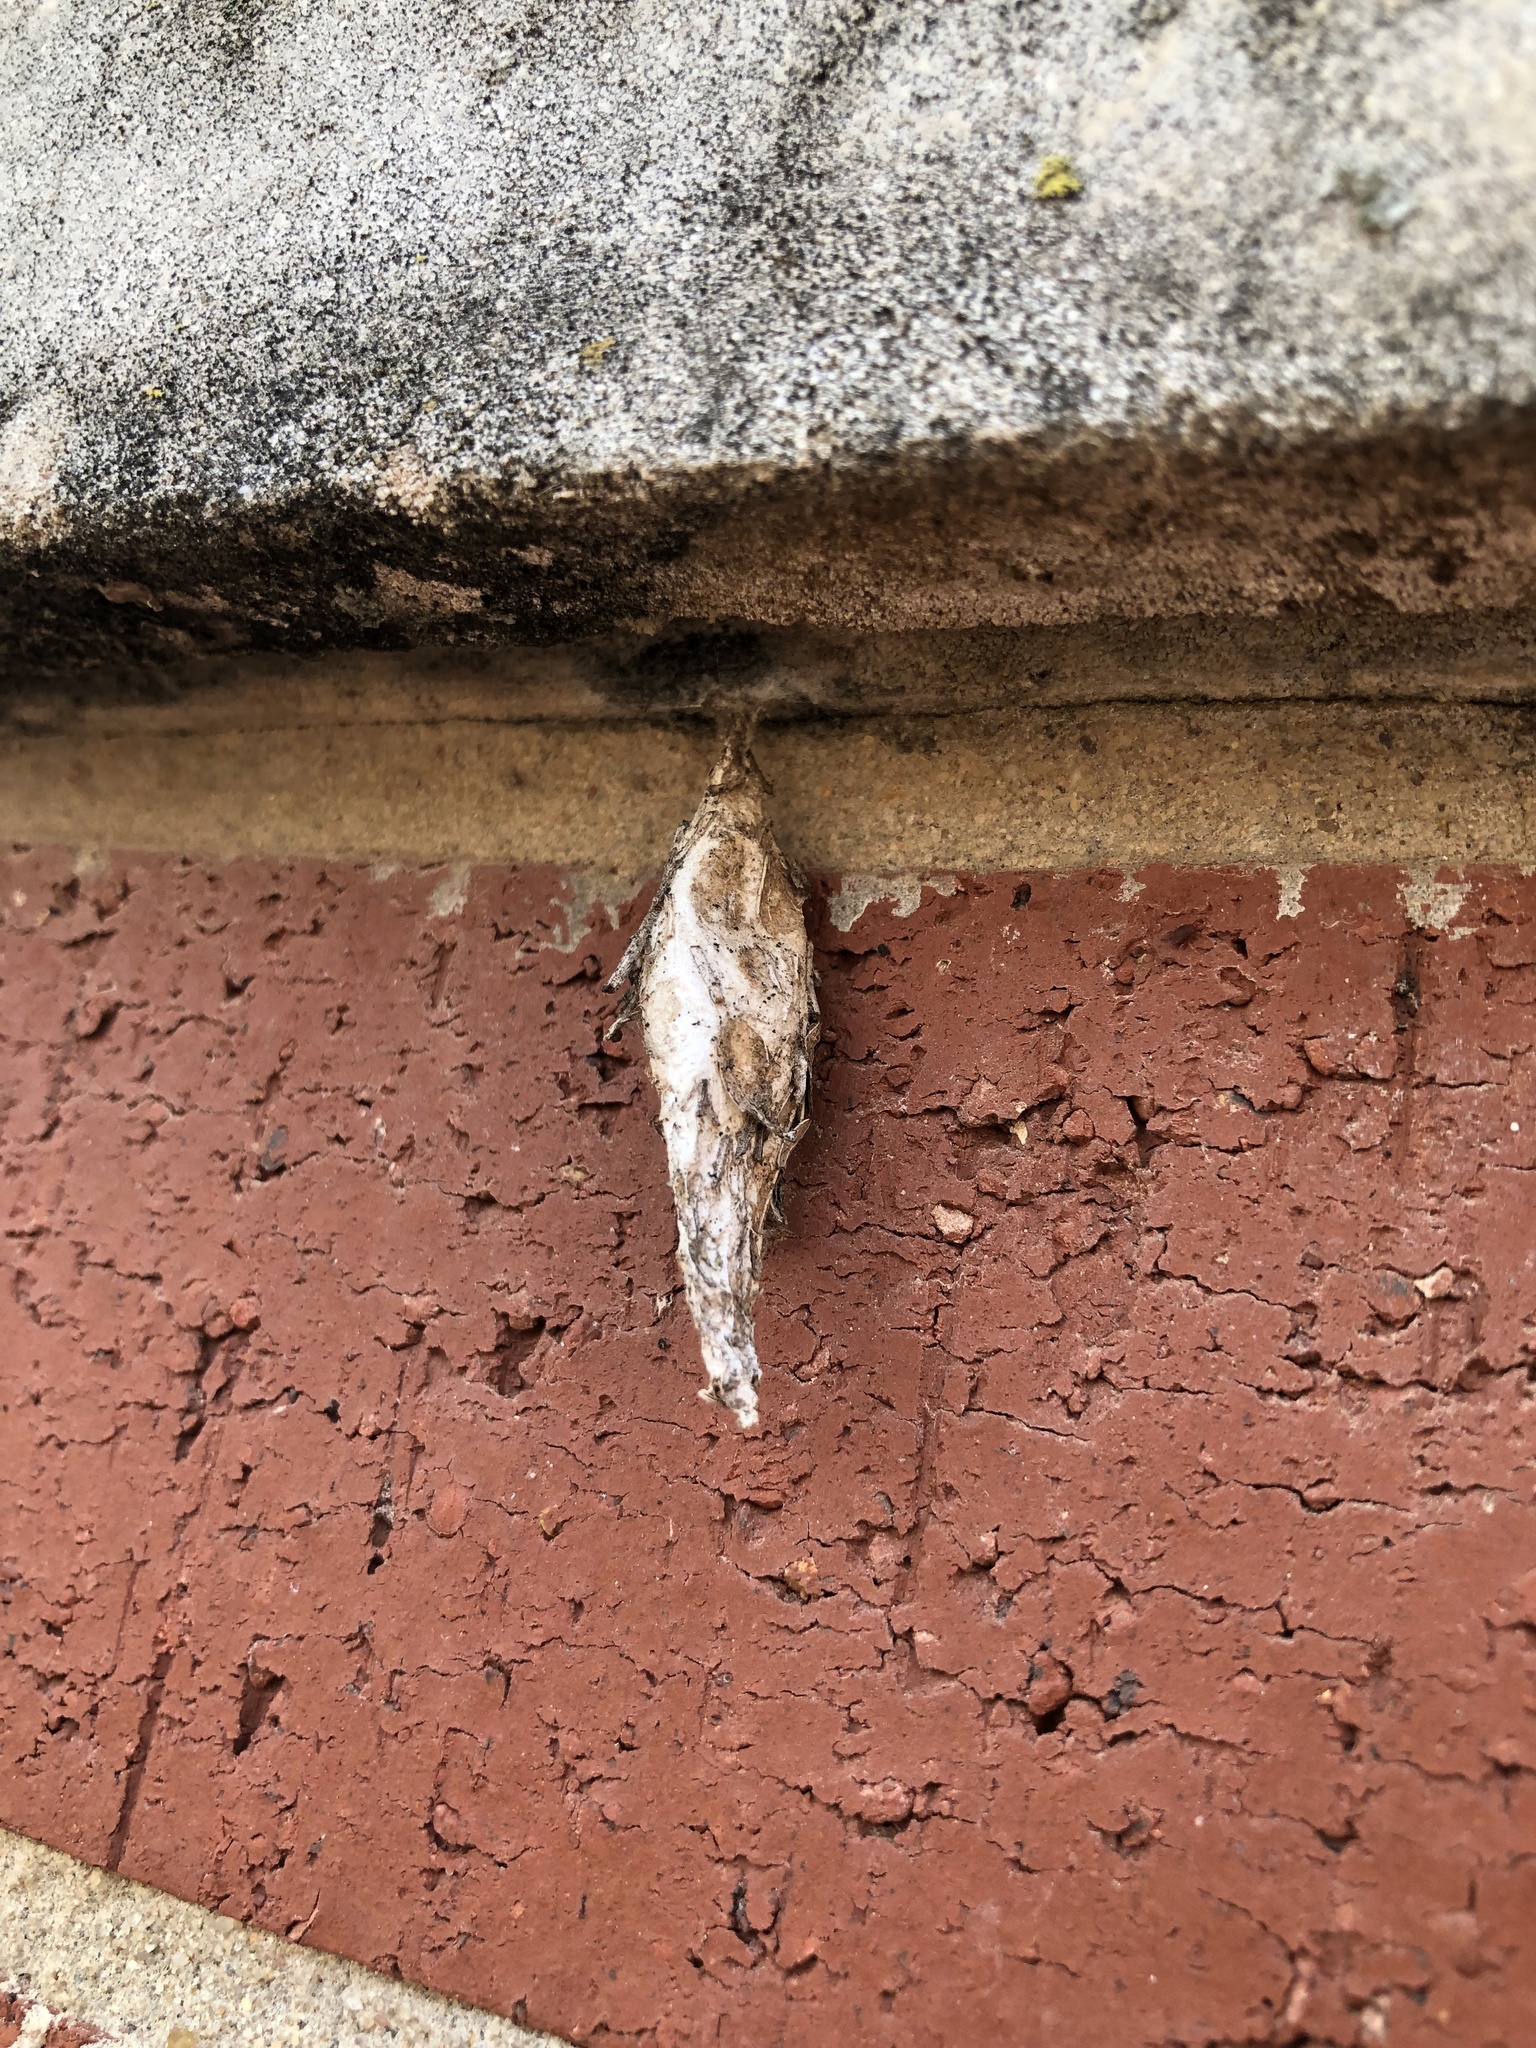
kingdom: Animalia
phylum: Arthropoda
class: Insecta
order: Lepidoptera
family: Psychidae
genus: Thyridopteryx
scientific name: Thyridopteryx ephemeraeformis
